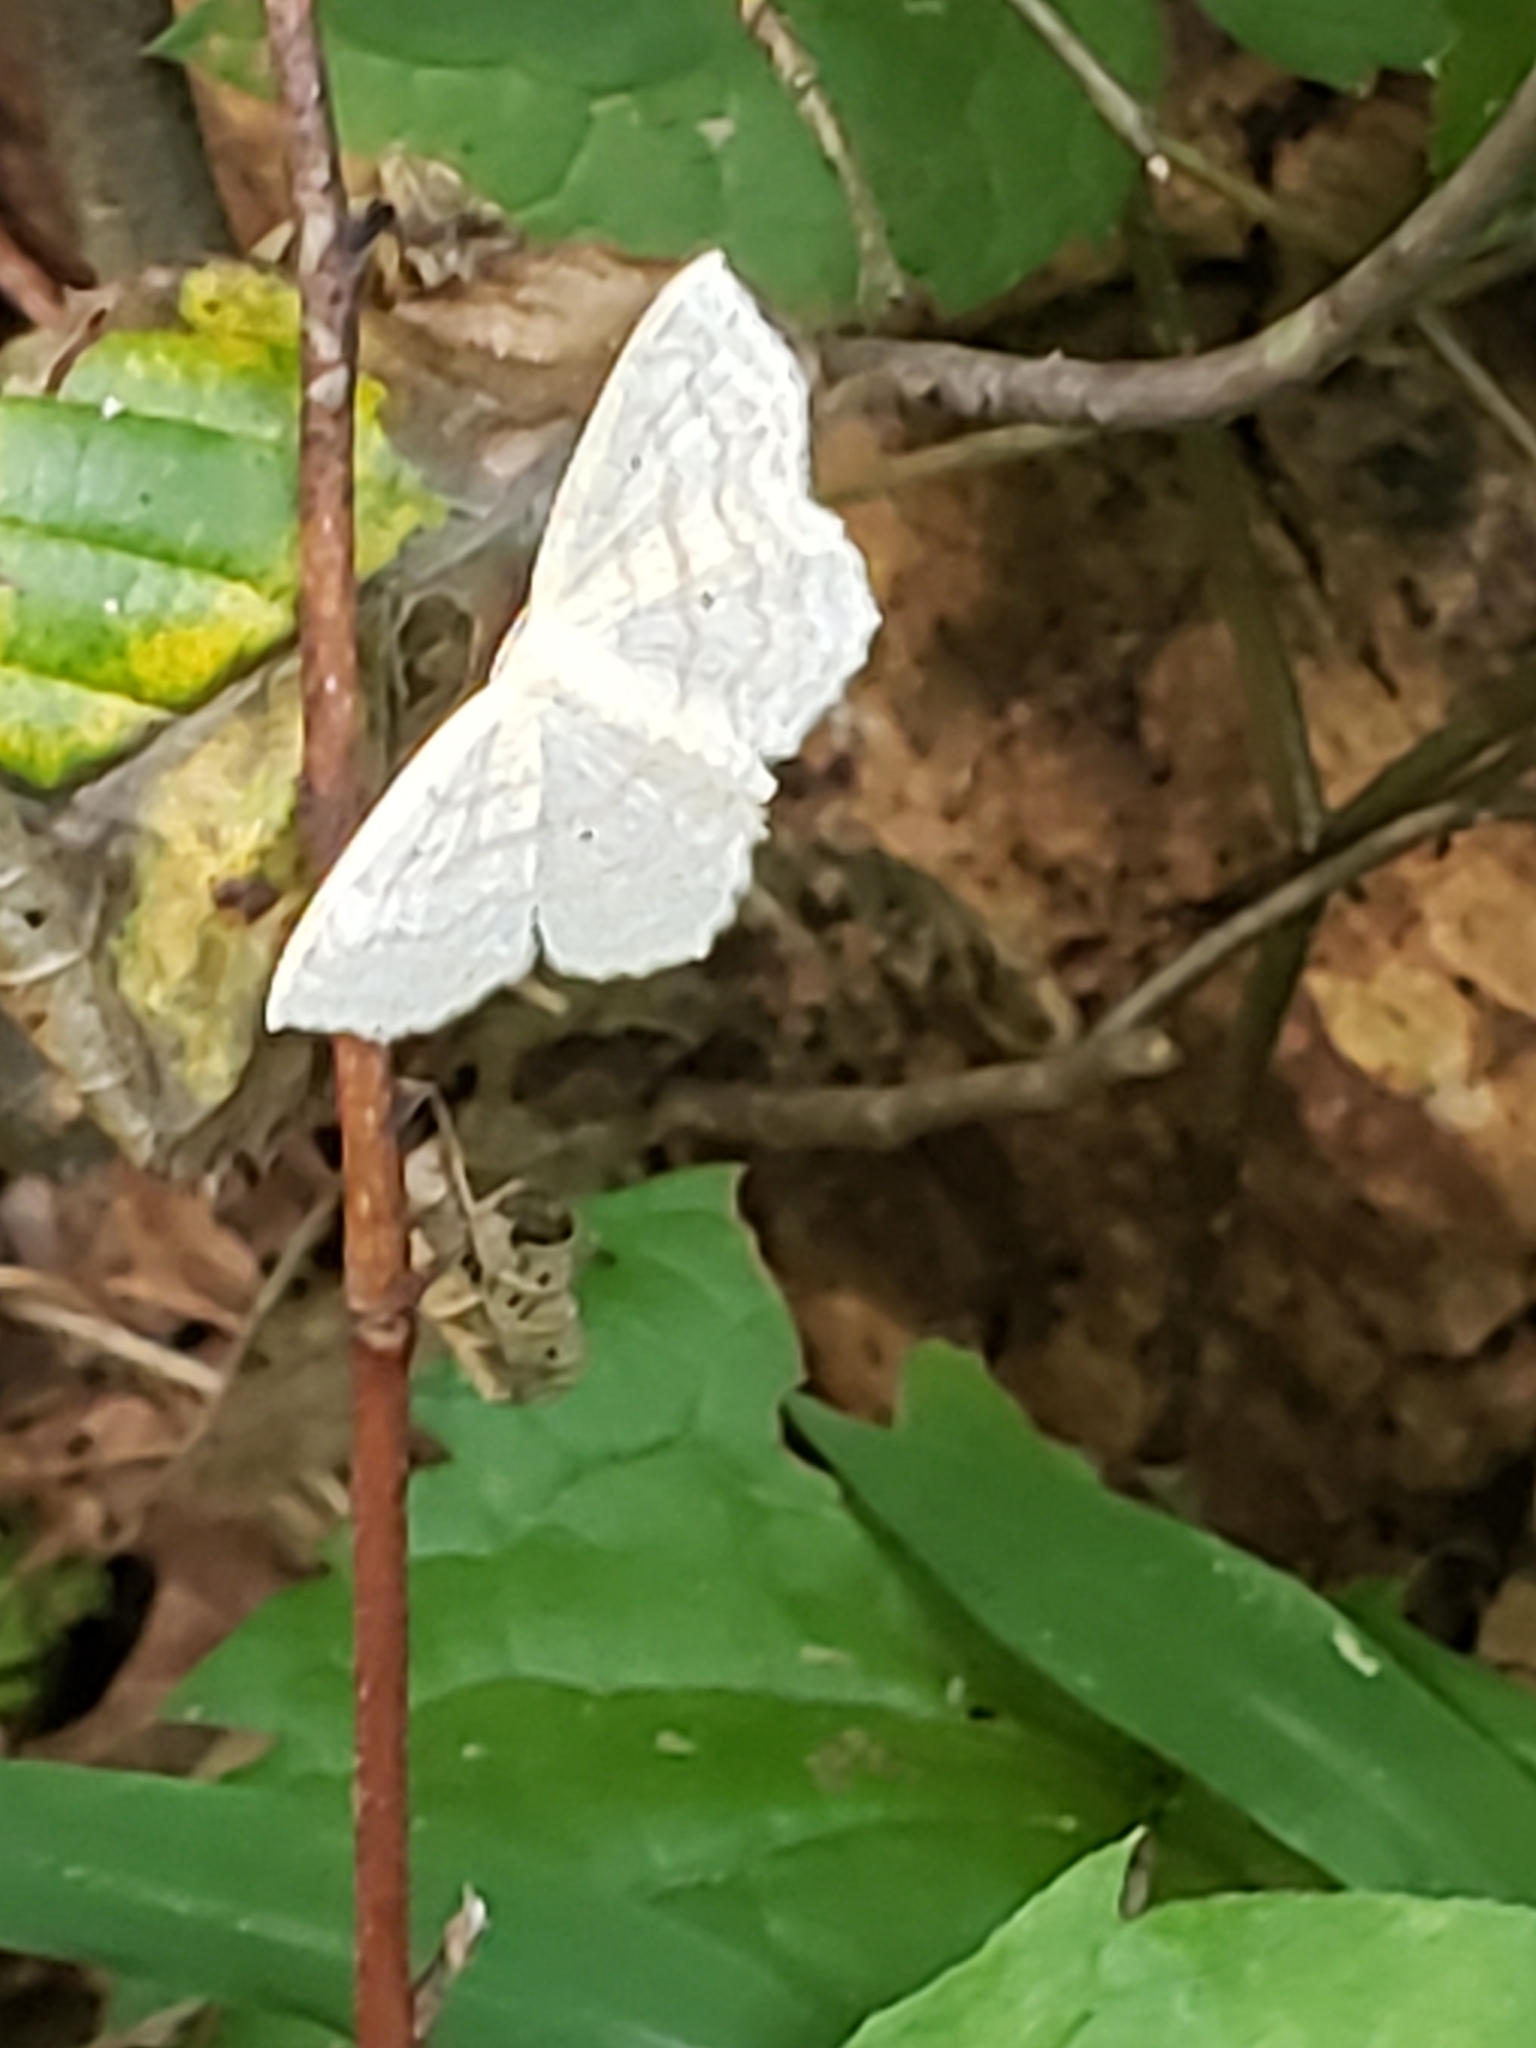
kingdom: Animalia
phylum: Arthropoda
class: Insecta
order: Lepidoptera
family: Geometridae
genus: Scopula
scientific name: Scopula limboundata
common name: Large lace border
